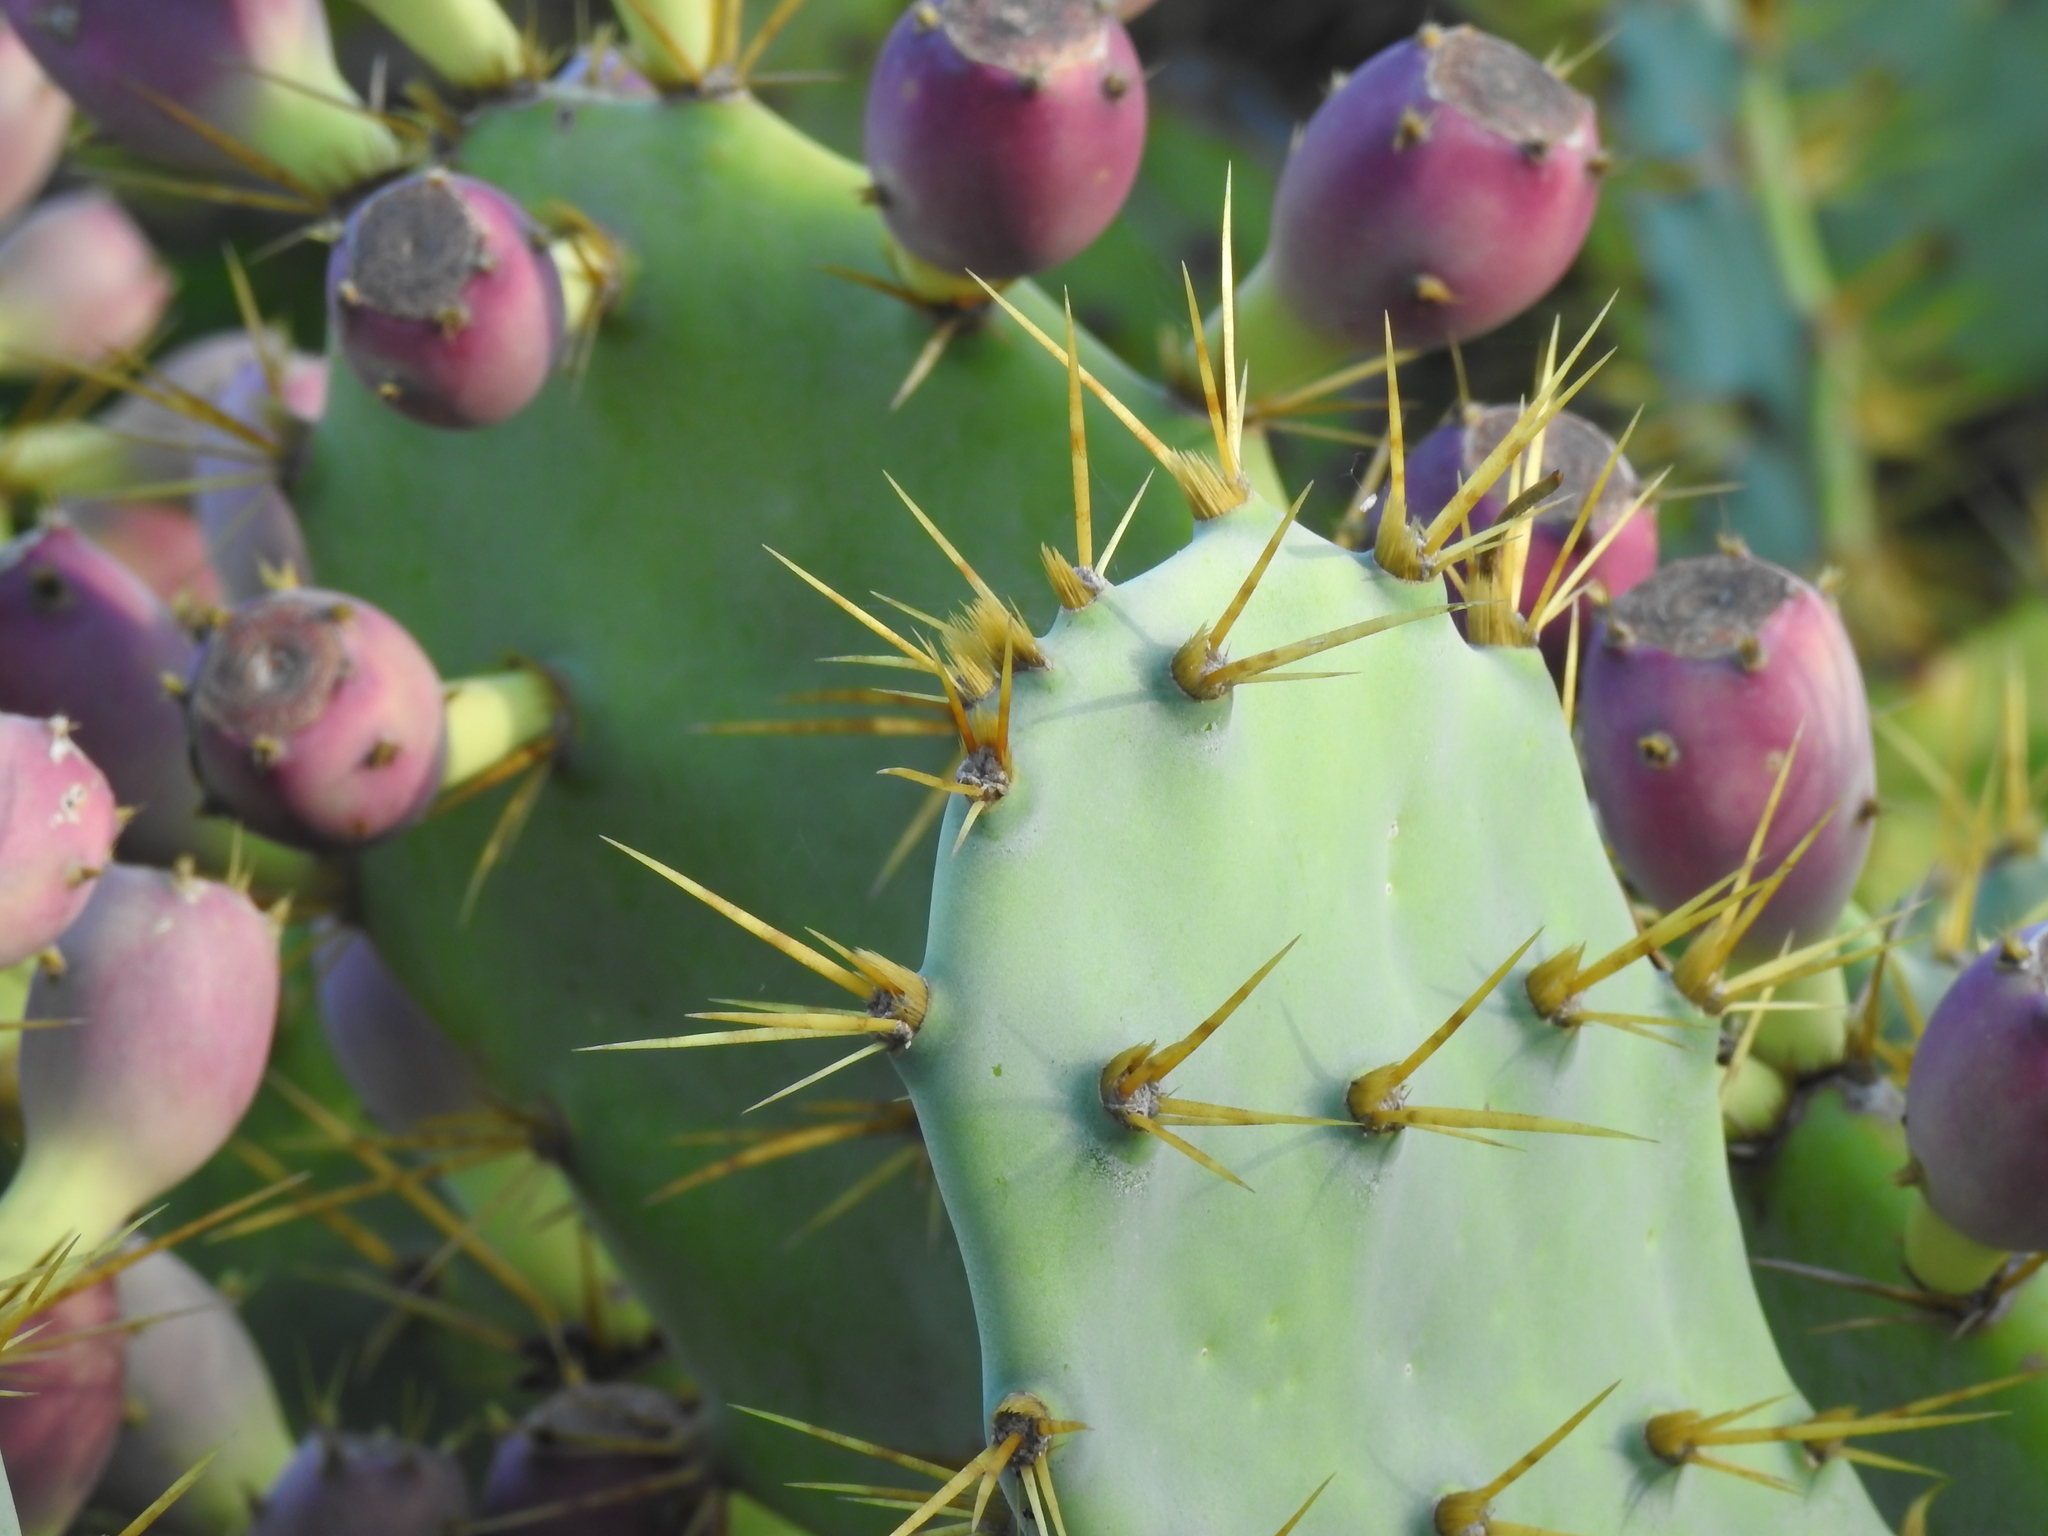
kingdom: Plantae
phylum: Tracheophyta
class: Magnoliopsida
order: Caryophyllales
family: Cactaceae
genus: Opuntia
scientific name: Opuntia stricta
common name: Erect pricklypear
